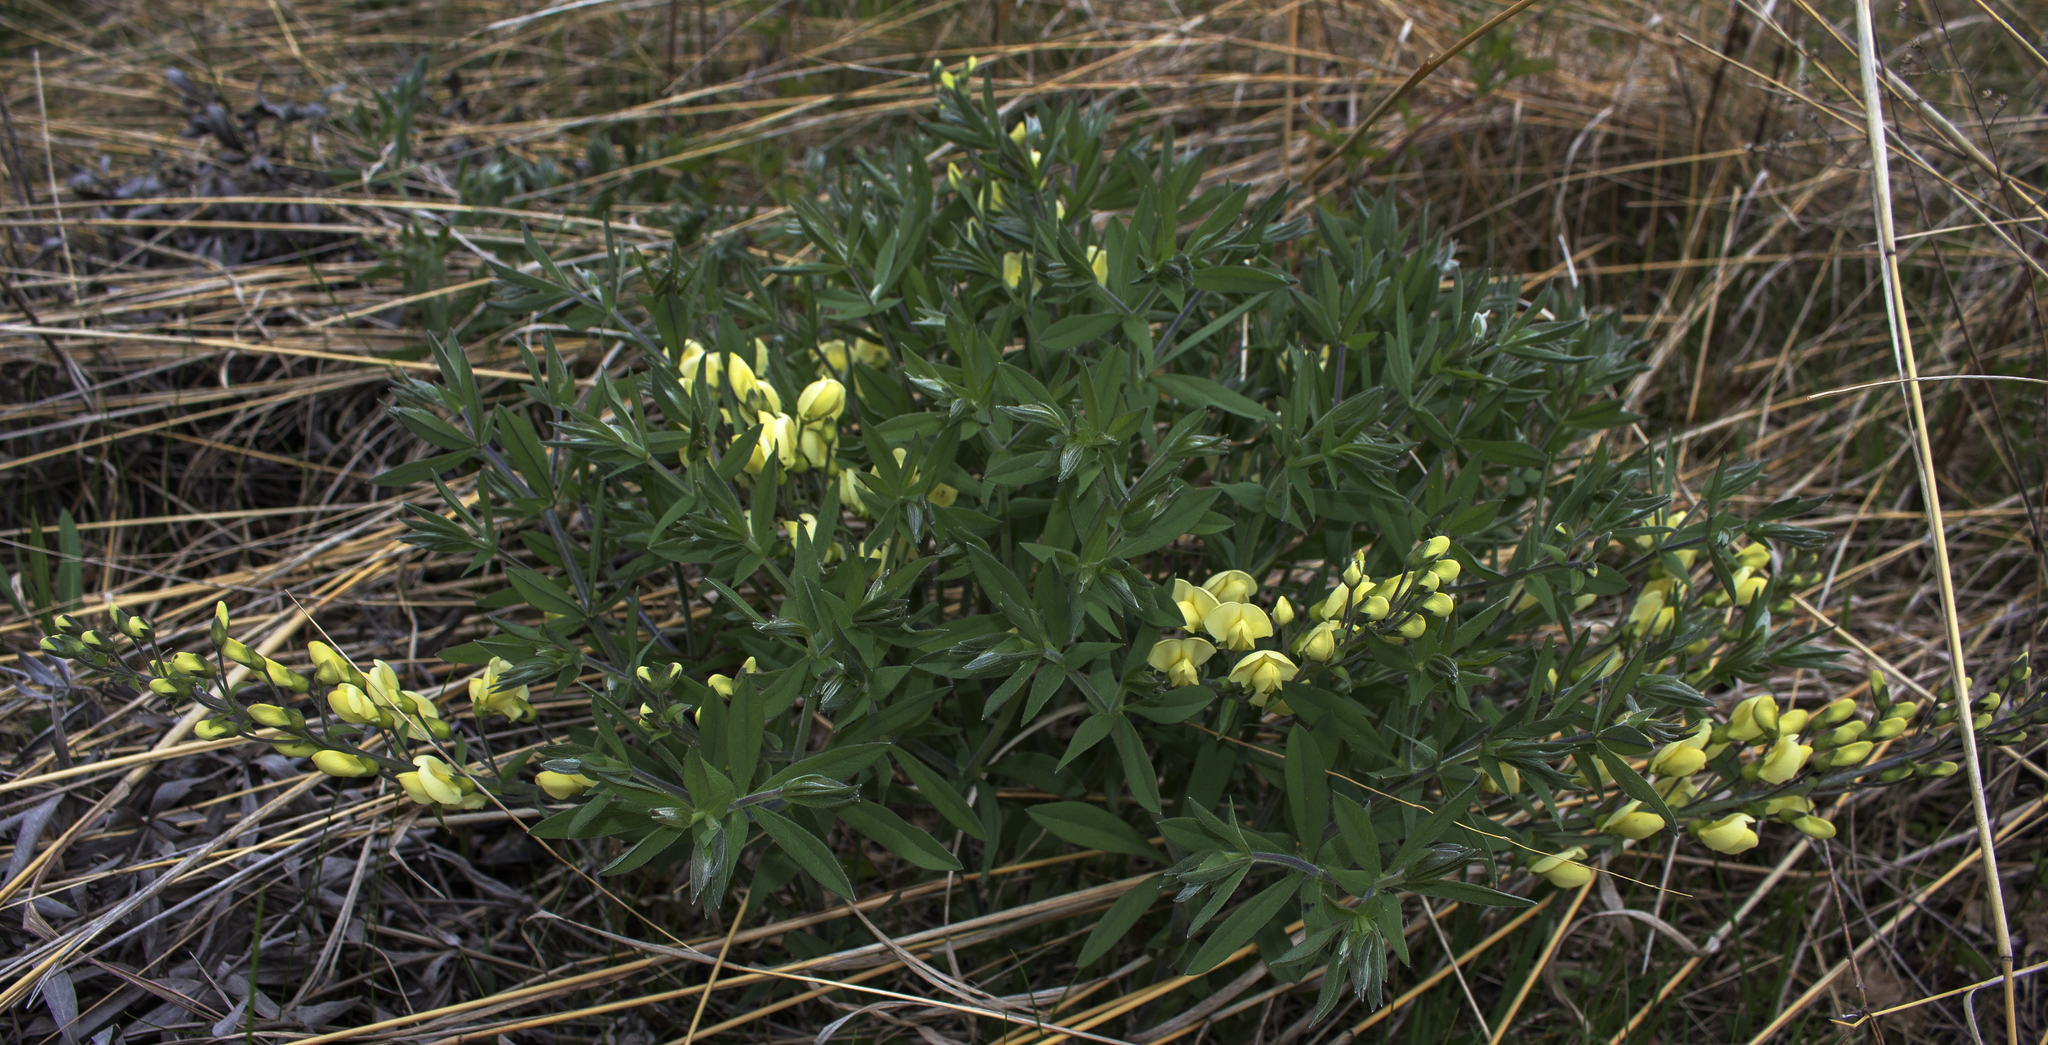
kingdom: Plantae
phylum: Tracheophyta
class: Magnoliopsida
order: Fabales
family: Fabaceae
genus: Baptisia
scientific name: Baptisia bracteata
